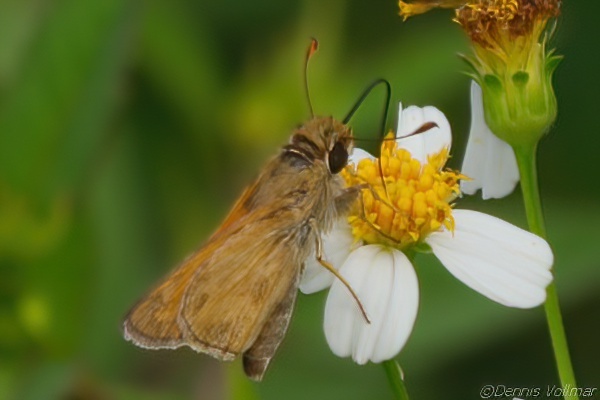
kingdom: Animalia
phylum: Arthropoda
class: Insecta
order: Lepidoptera
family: Hesperiidae
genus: Atalopedes
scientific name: Atalopedes
